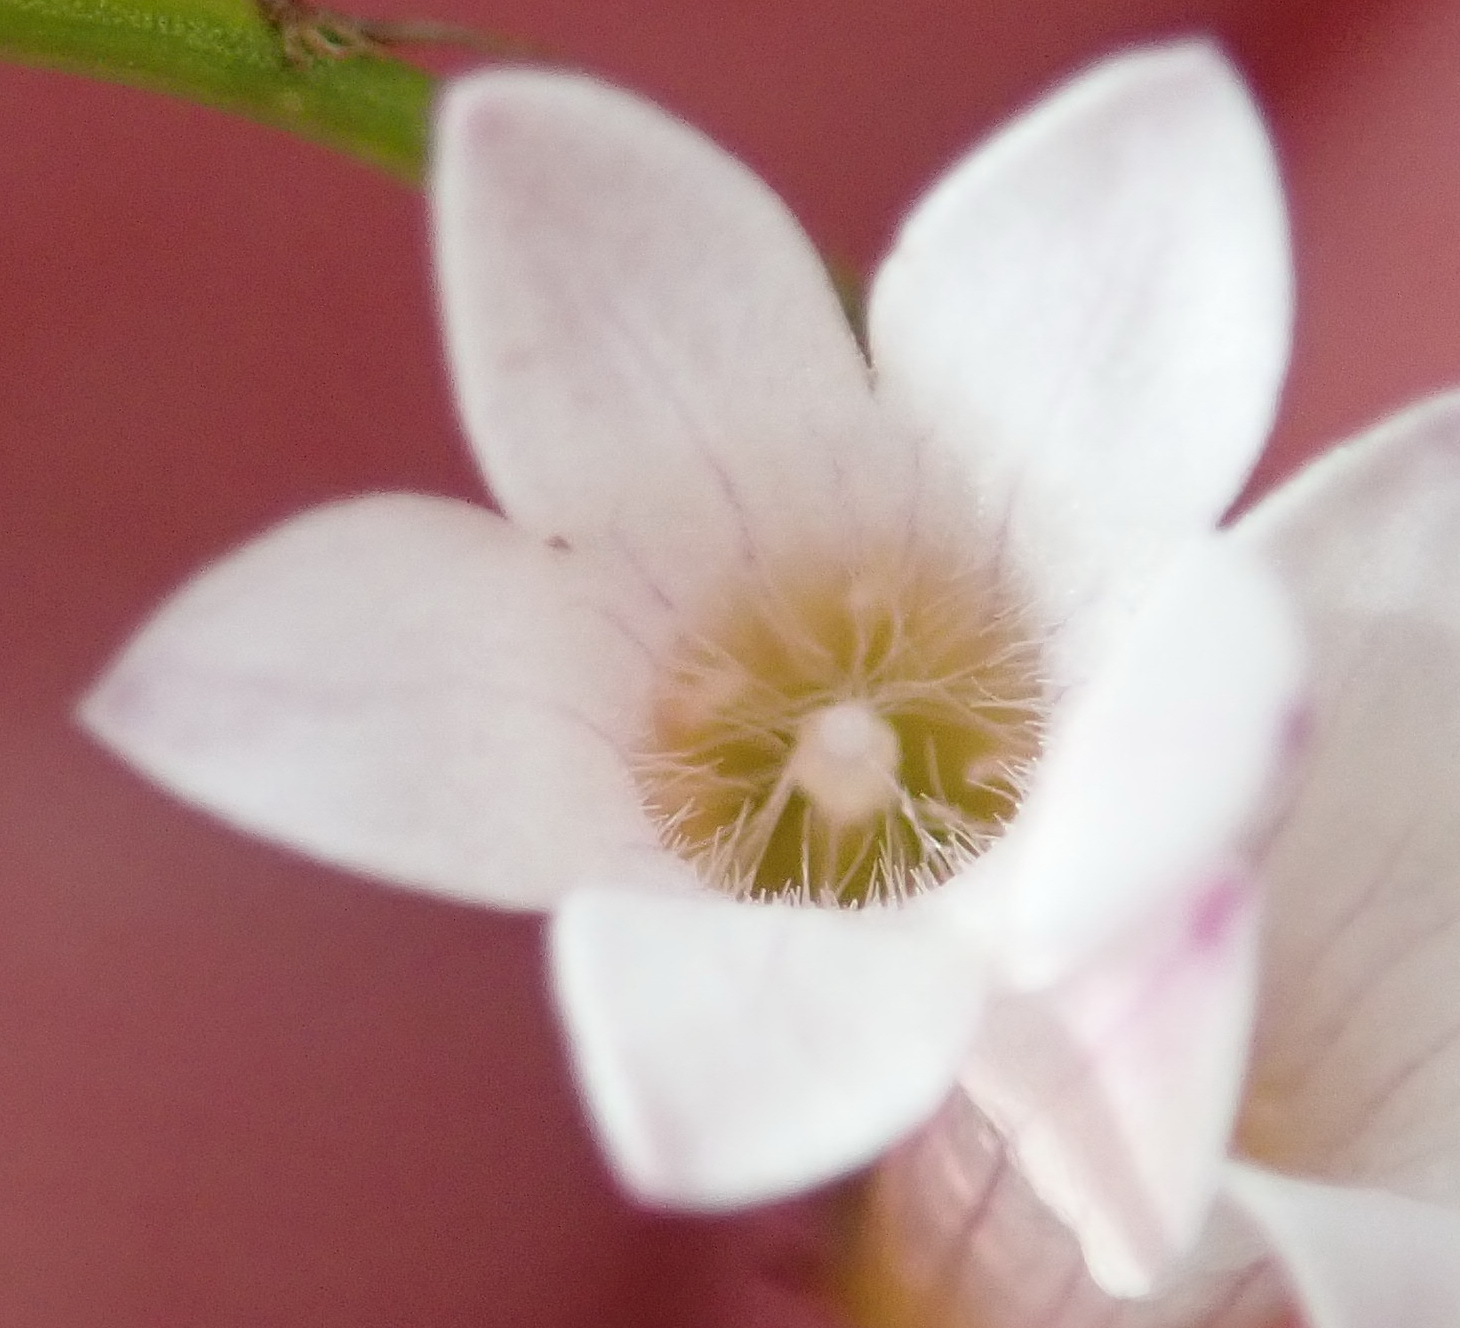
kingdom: Plantae
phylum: Tracheophyta
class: Magnoliopsida
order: Asterales
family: Campanulaceae
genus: Siphocodon
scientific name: Siphocodon debilis
